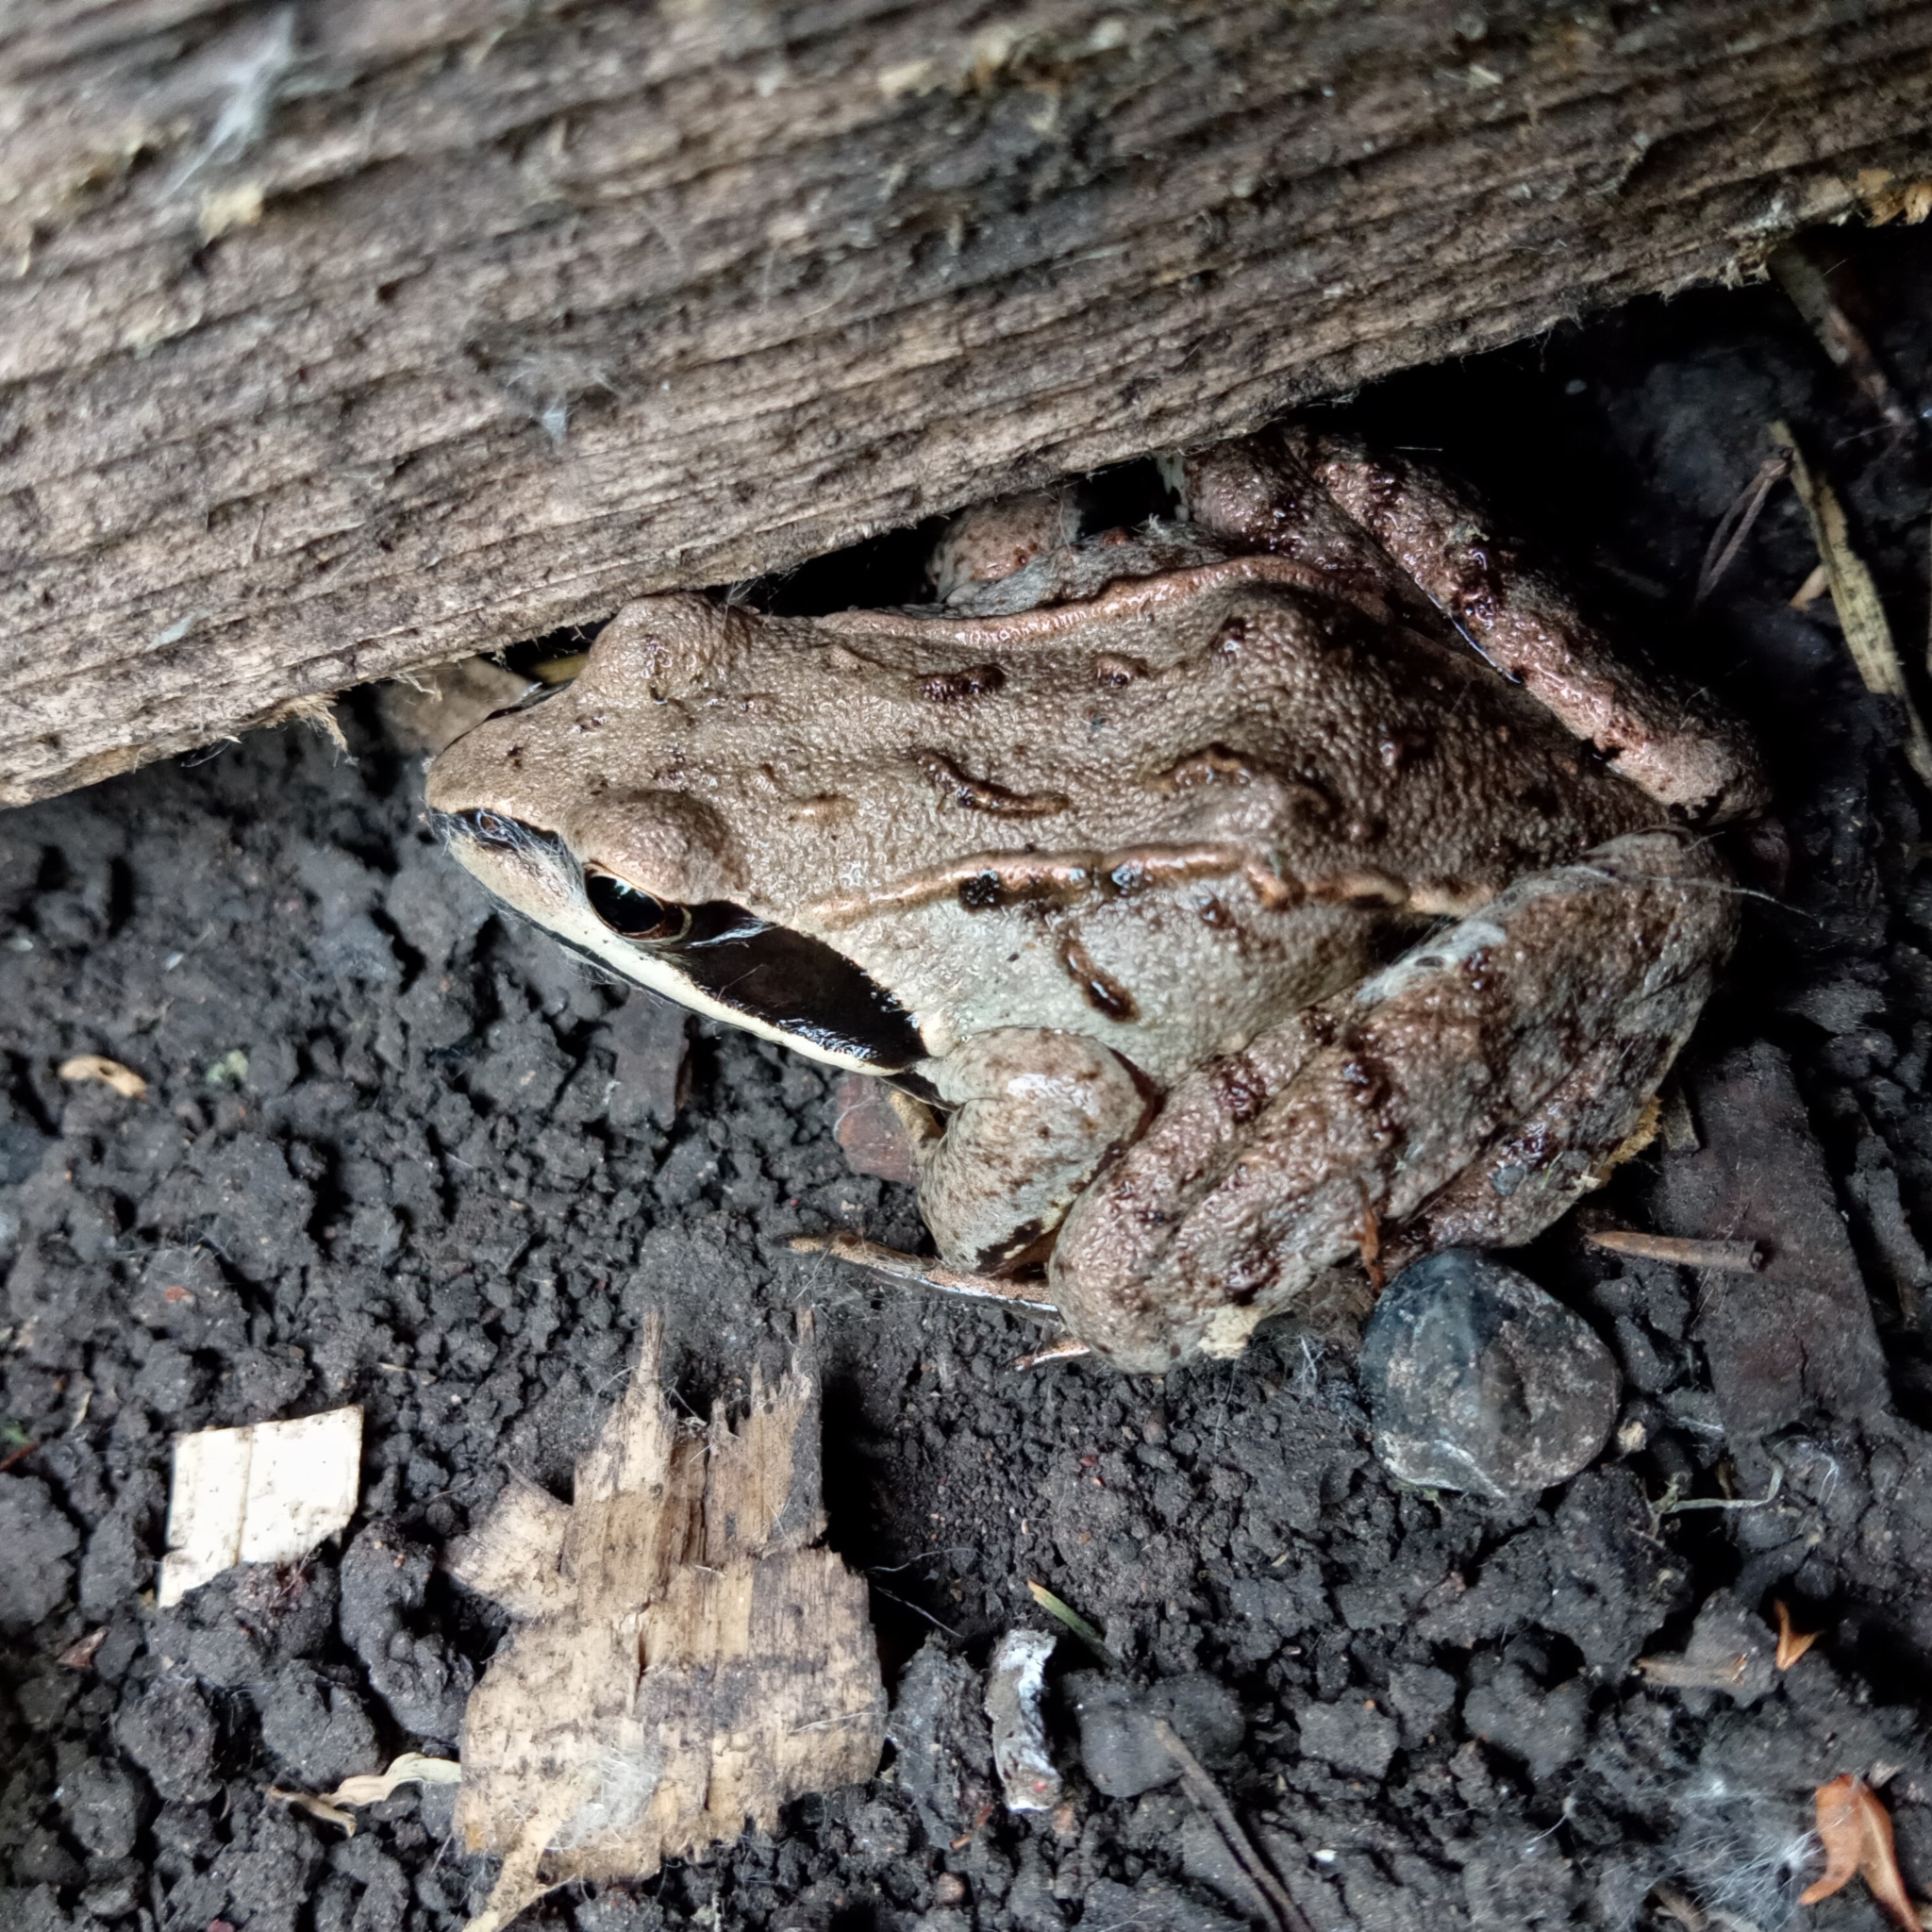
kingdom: Animalia
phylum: Chordata
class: Amphibia
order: Anura
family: Ranidae
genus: Rana
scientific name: Rana arvalis
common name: Moor frog
